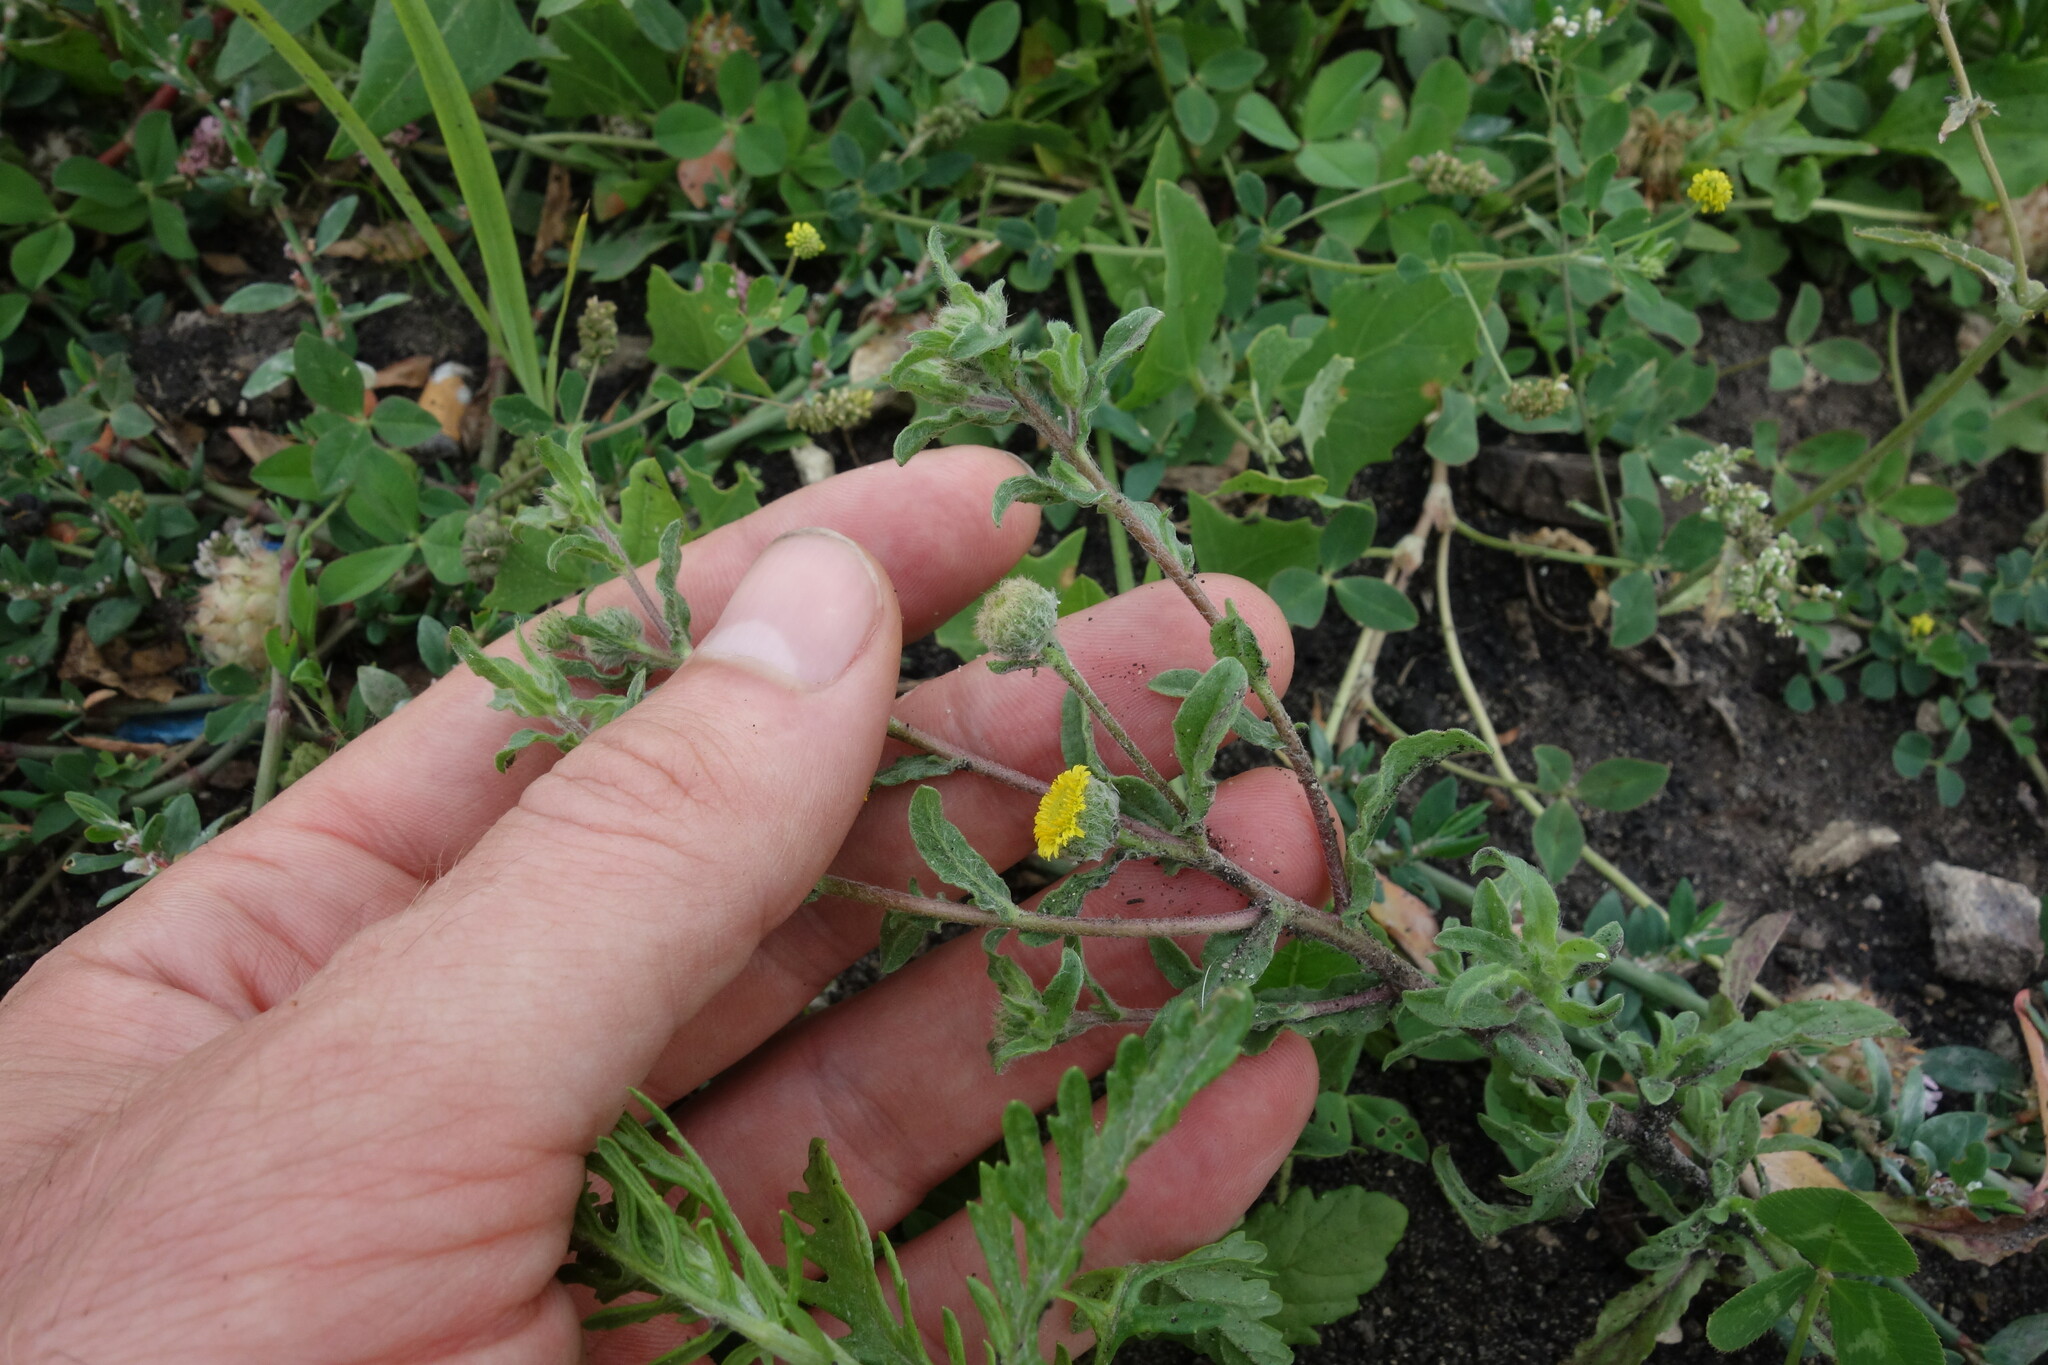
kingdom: Plantae
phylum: Tracheophyta
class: Magnoliopsida
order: Asterales
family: Asteraceae
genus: Pulicaria
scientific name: Pulicaria vulgaris
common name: Small fleabane
